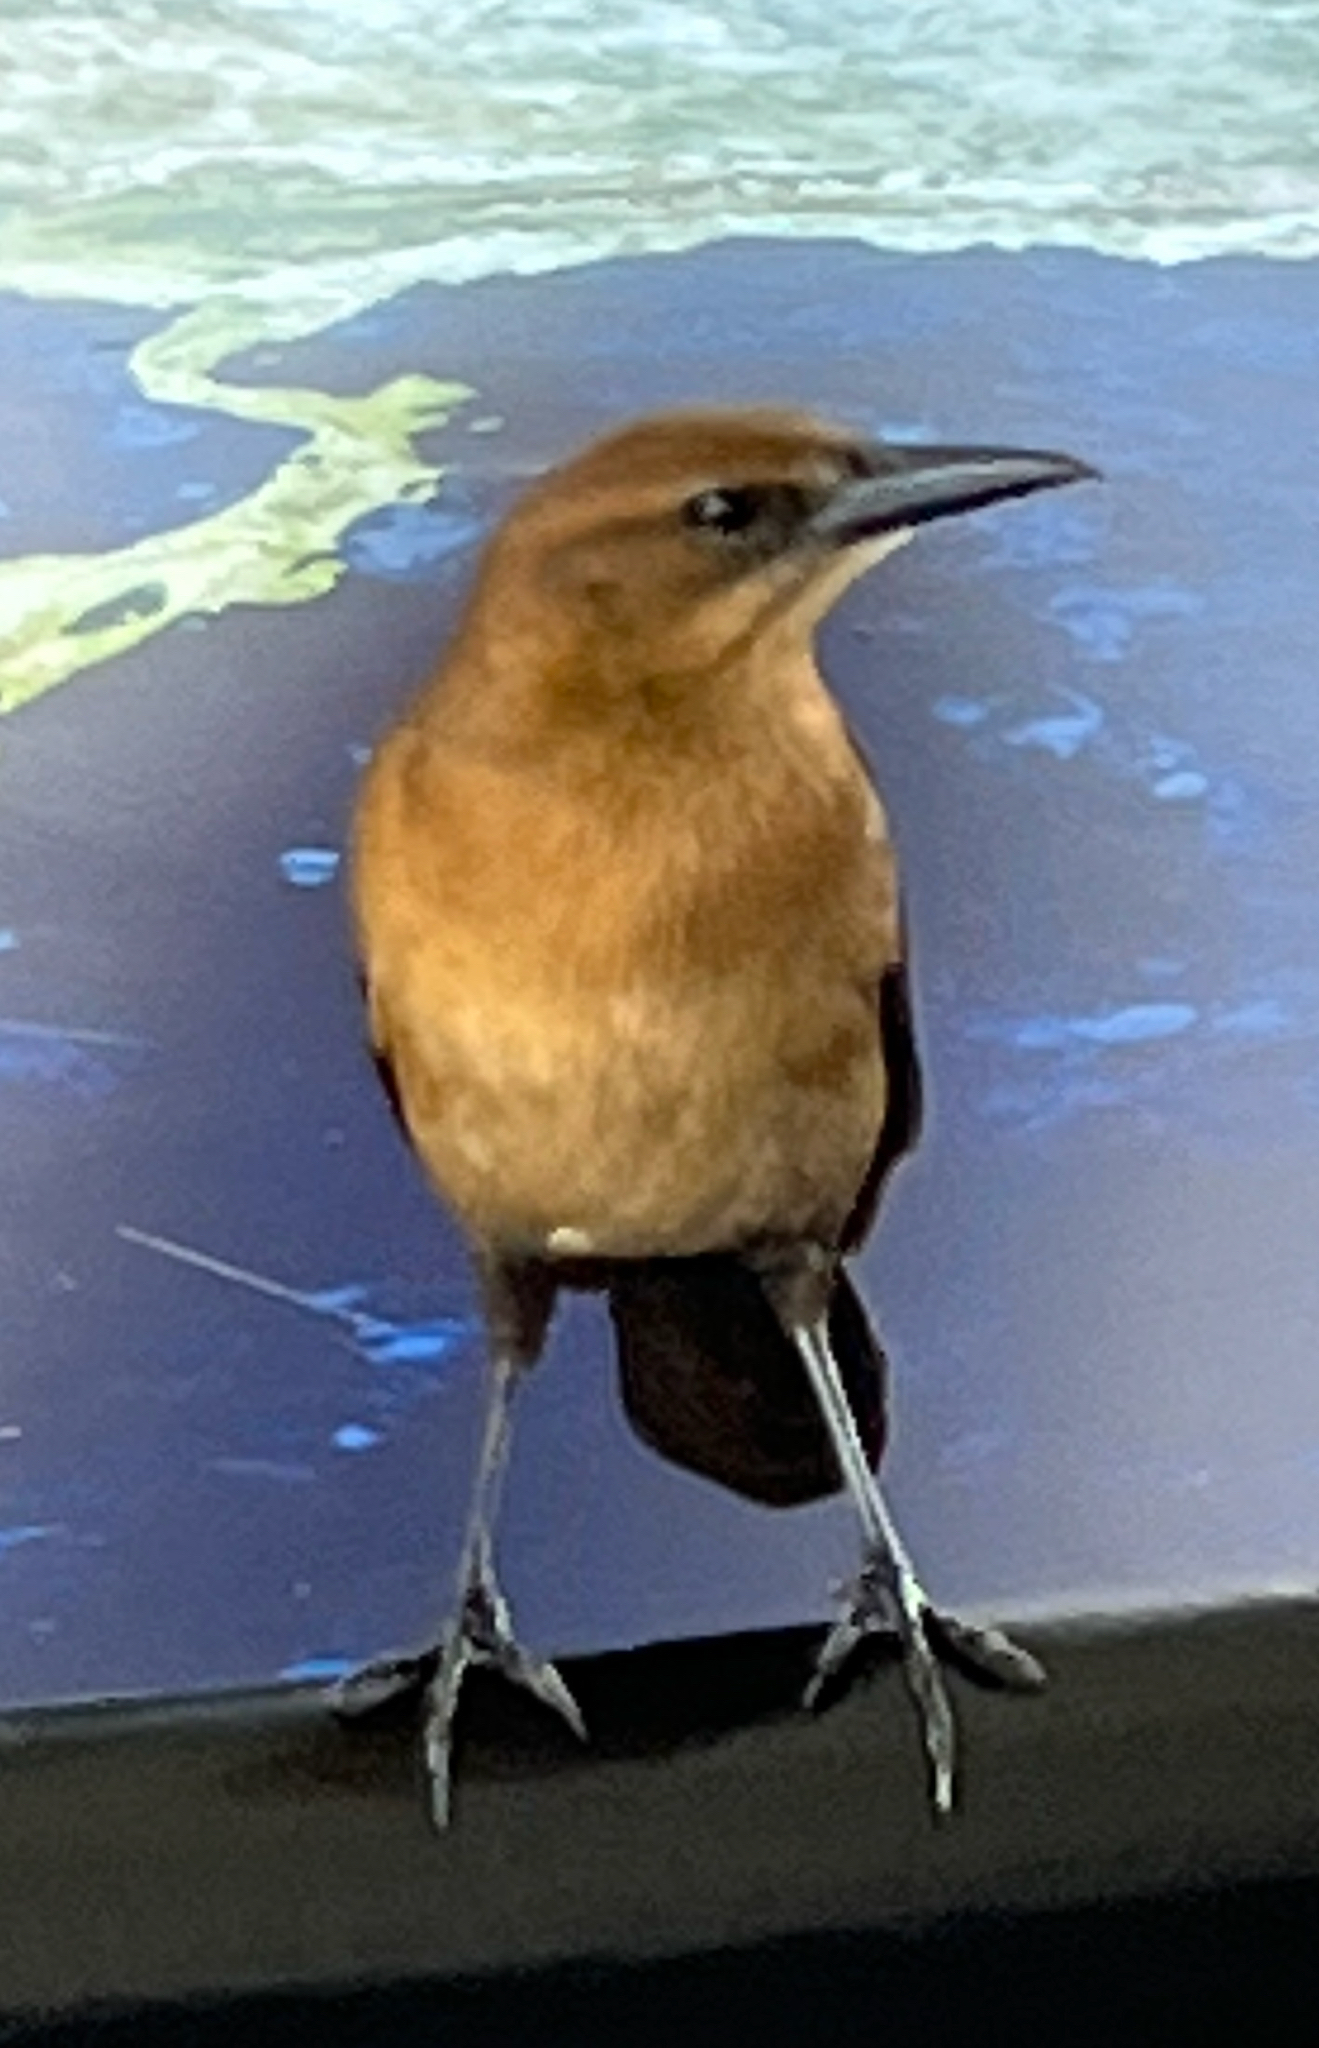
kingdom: Animalia
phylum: Chordata
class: Aves
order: Passeriformes
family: Icteridae
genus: Quiscalus
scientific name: Quiscalus major
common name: Boat-tailed grackle
